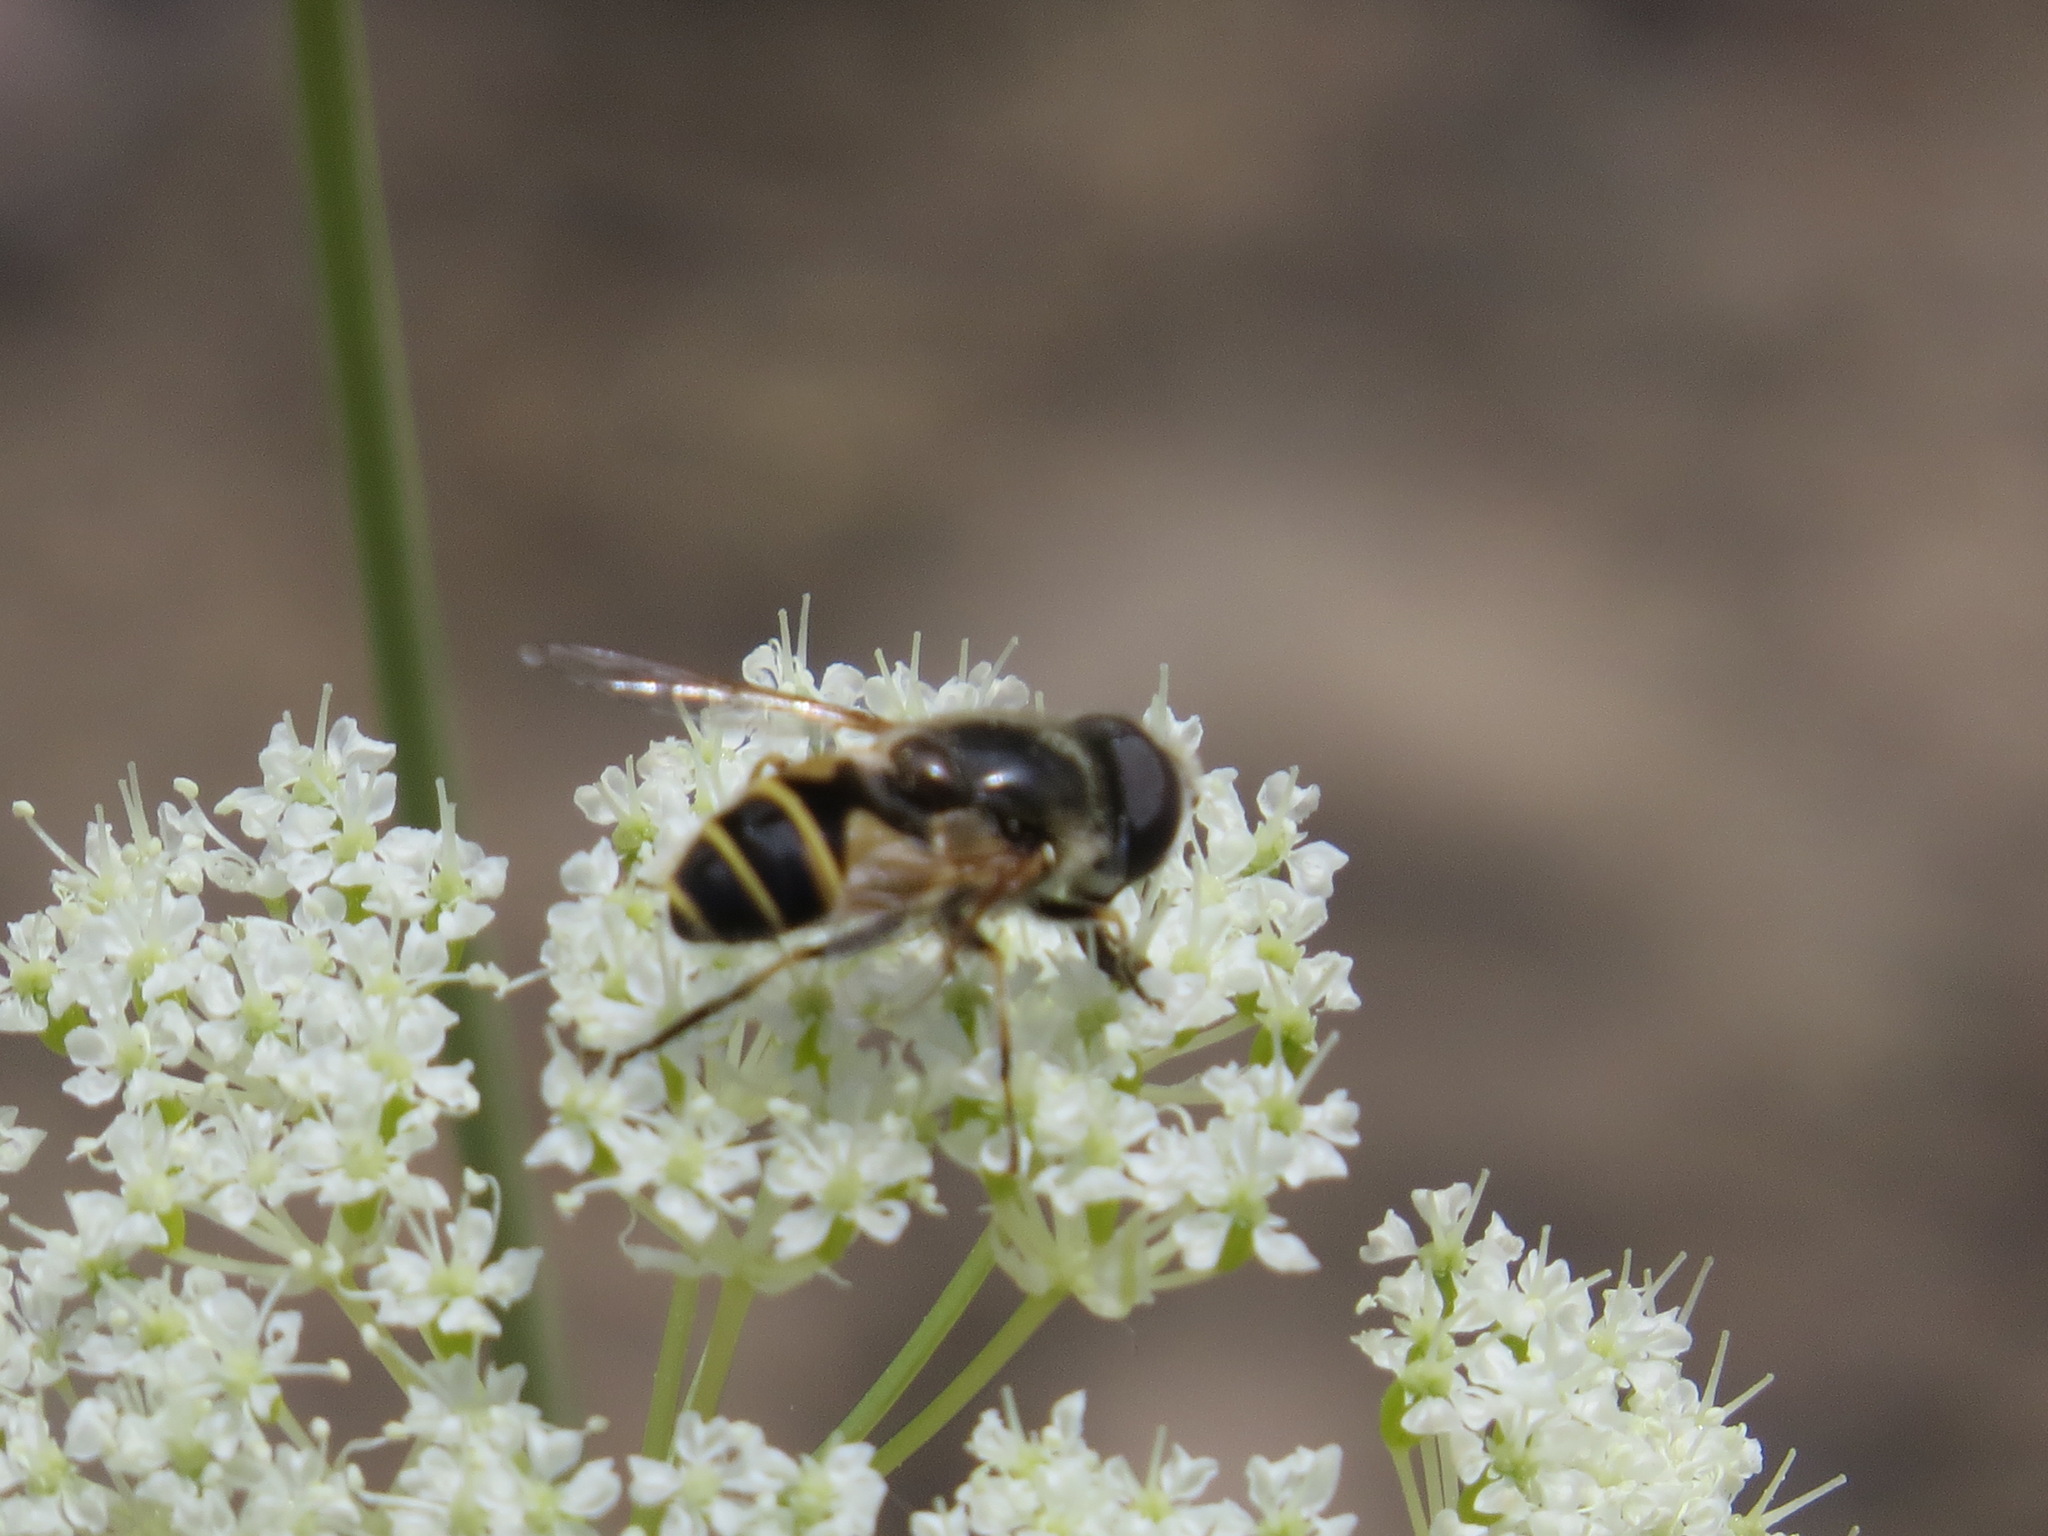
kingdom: Animalia
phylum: Arthropoda
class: Insecta
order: Diptera
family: Syrphidae
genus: Eristalis
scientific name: Eristalis hirta
